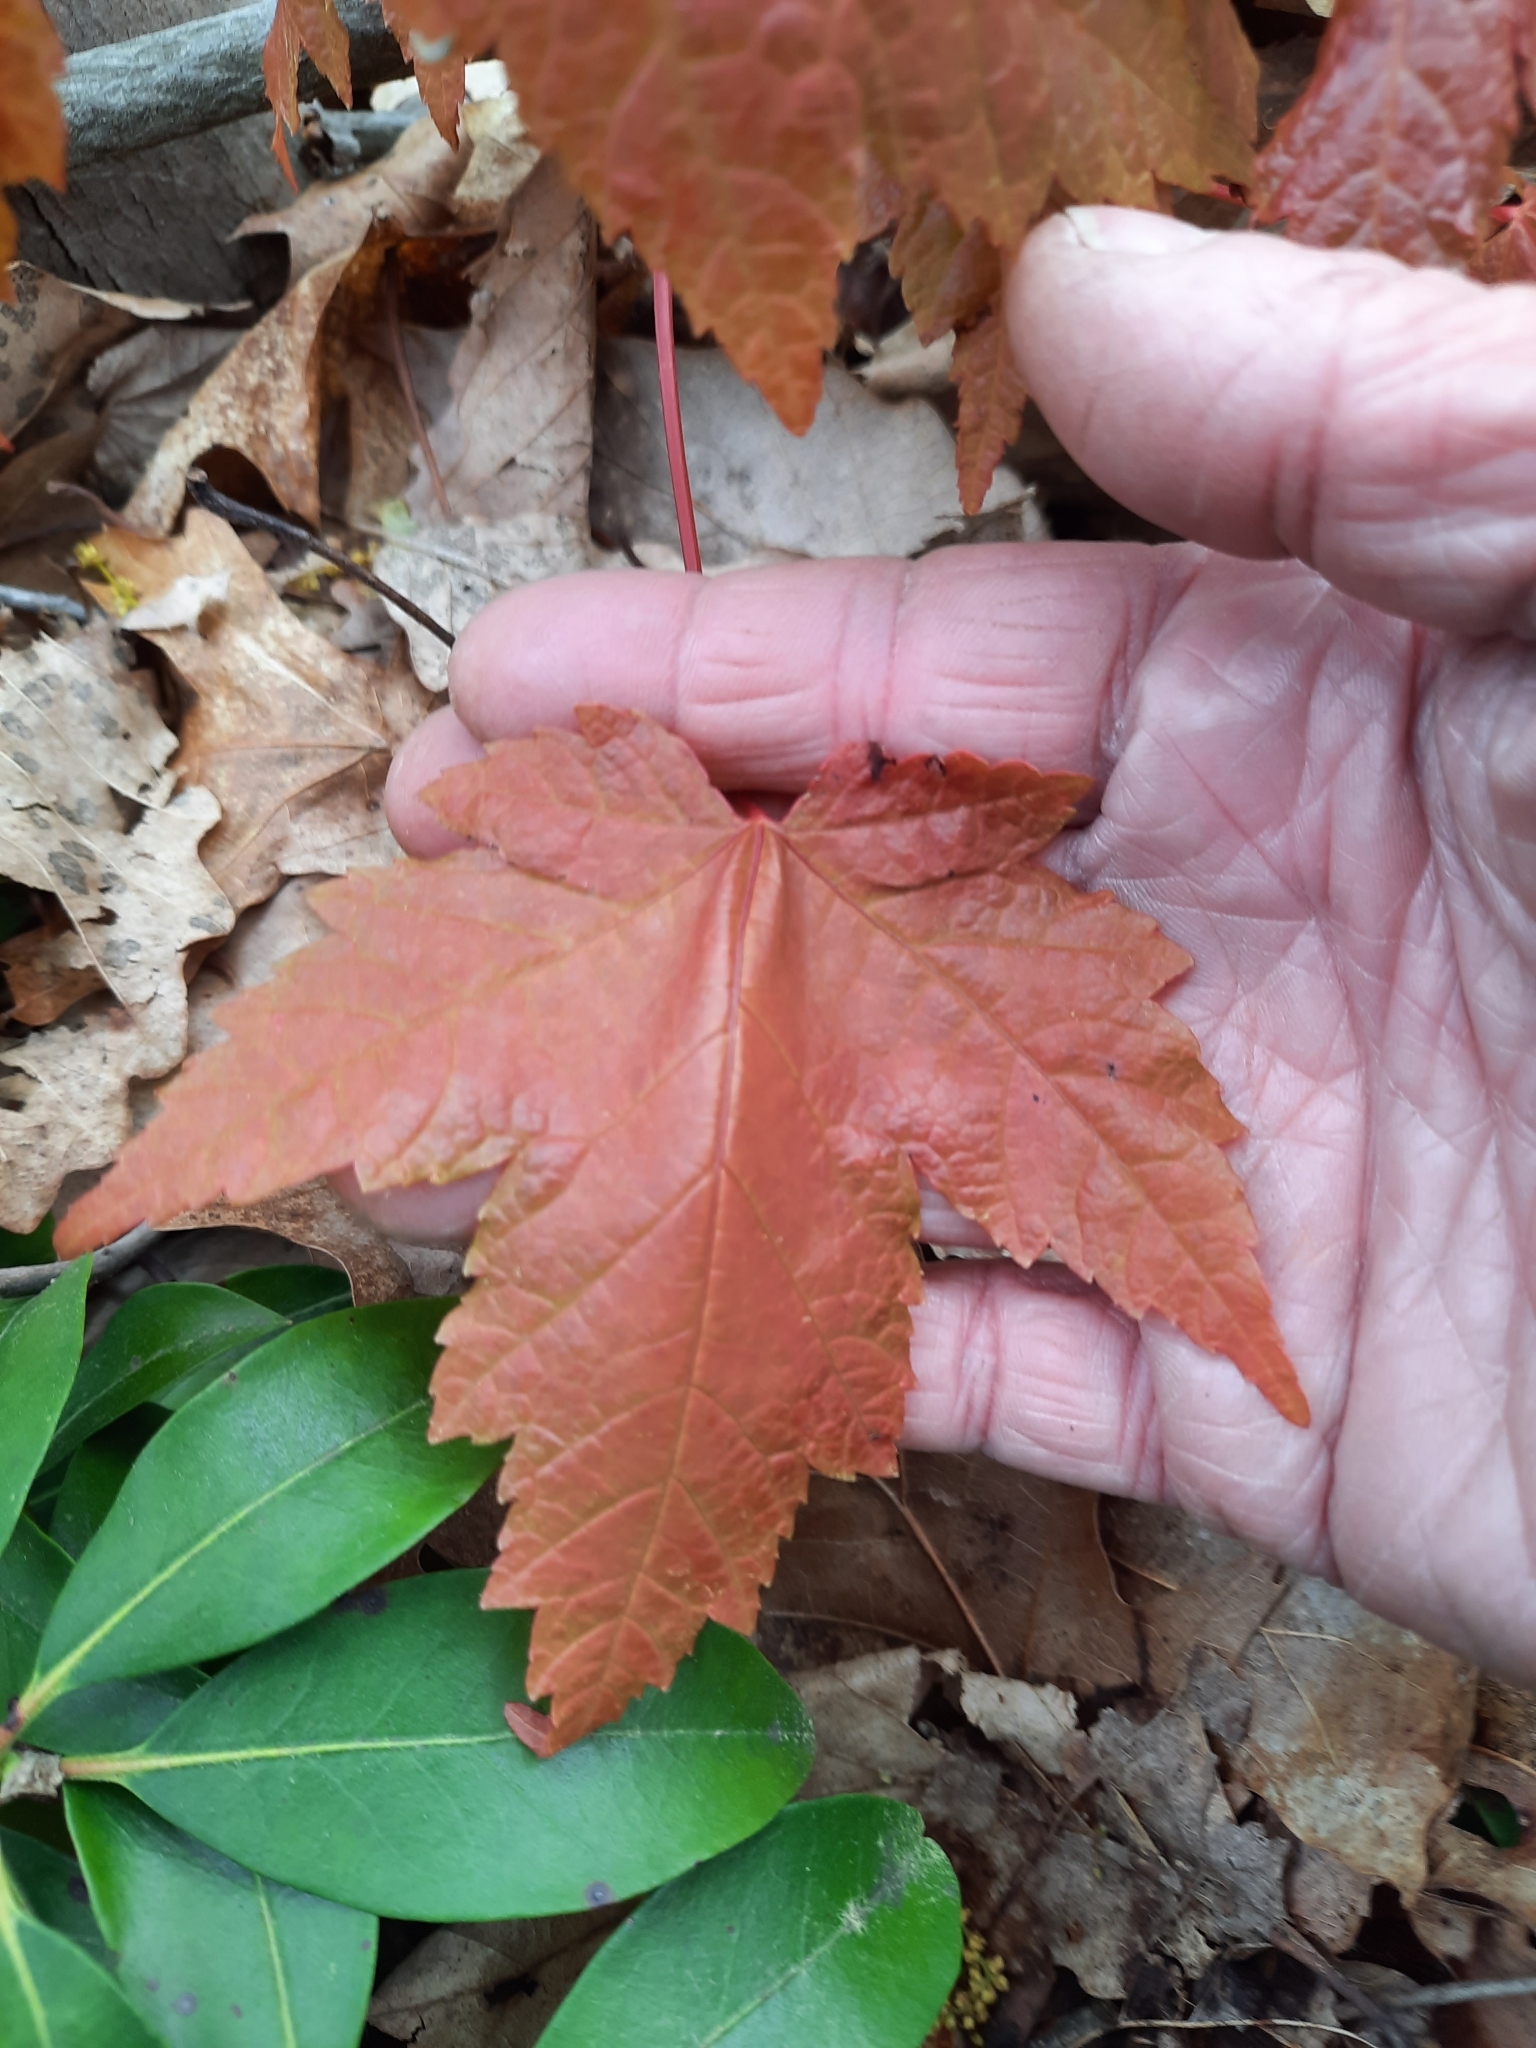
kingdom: Plantae
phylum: Tracheophyta
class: Magnoliopsida
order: Sapindales
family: Sapindaceae
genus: Acer
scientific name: Acer rubrum
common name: Red maple
